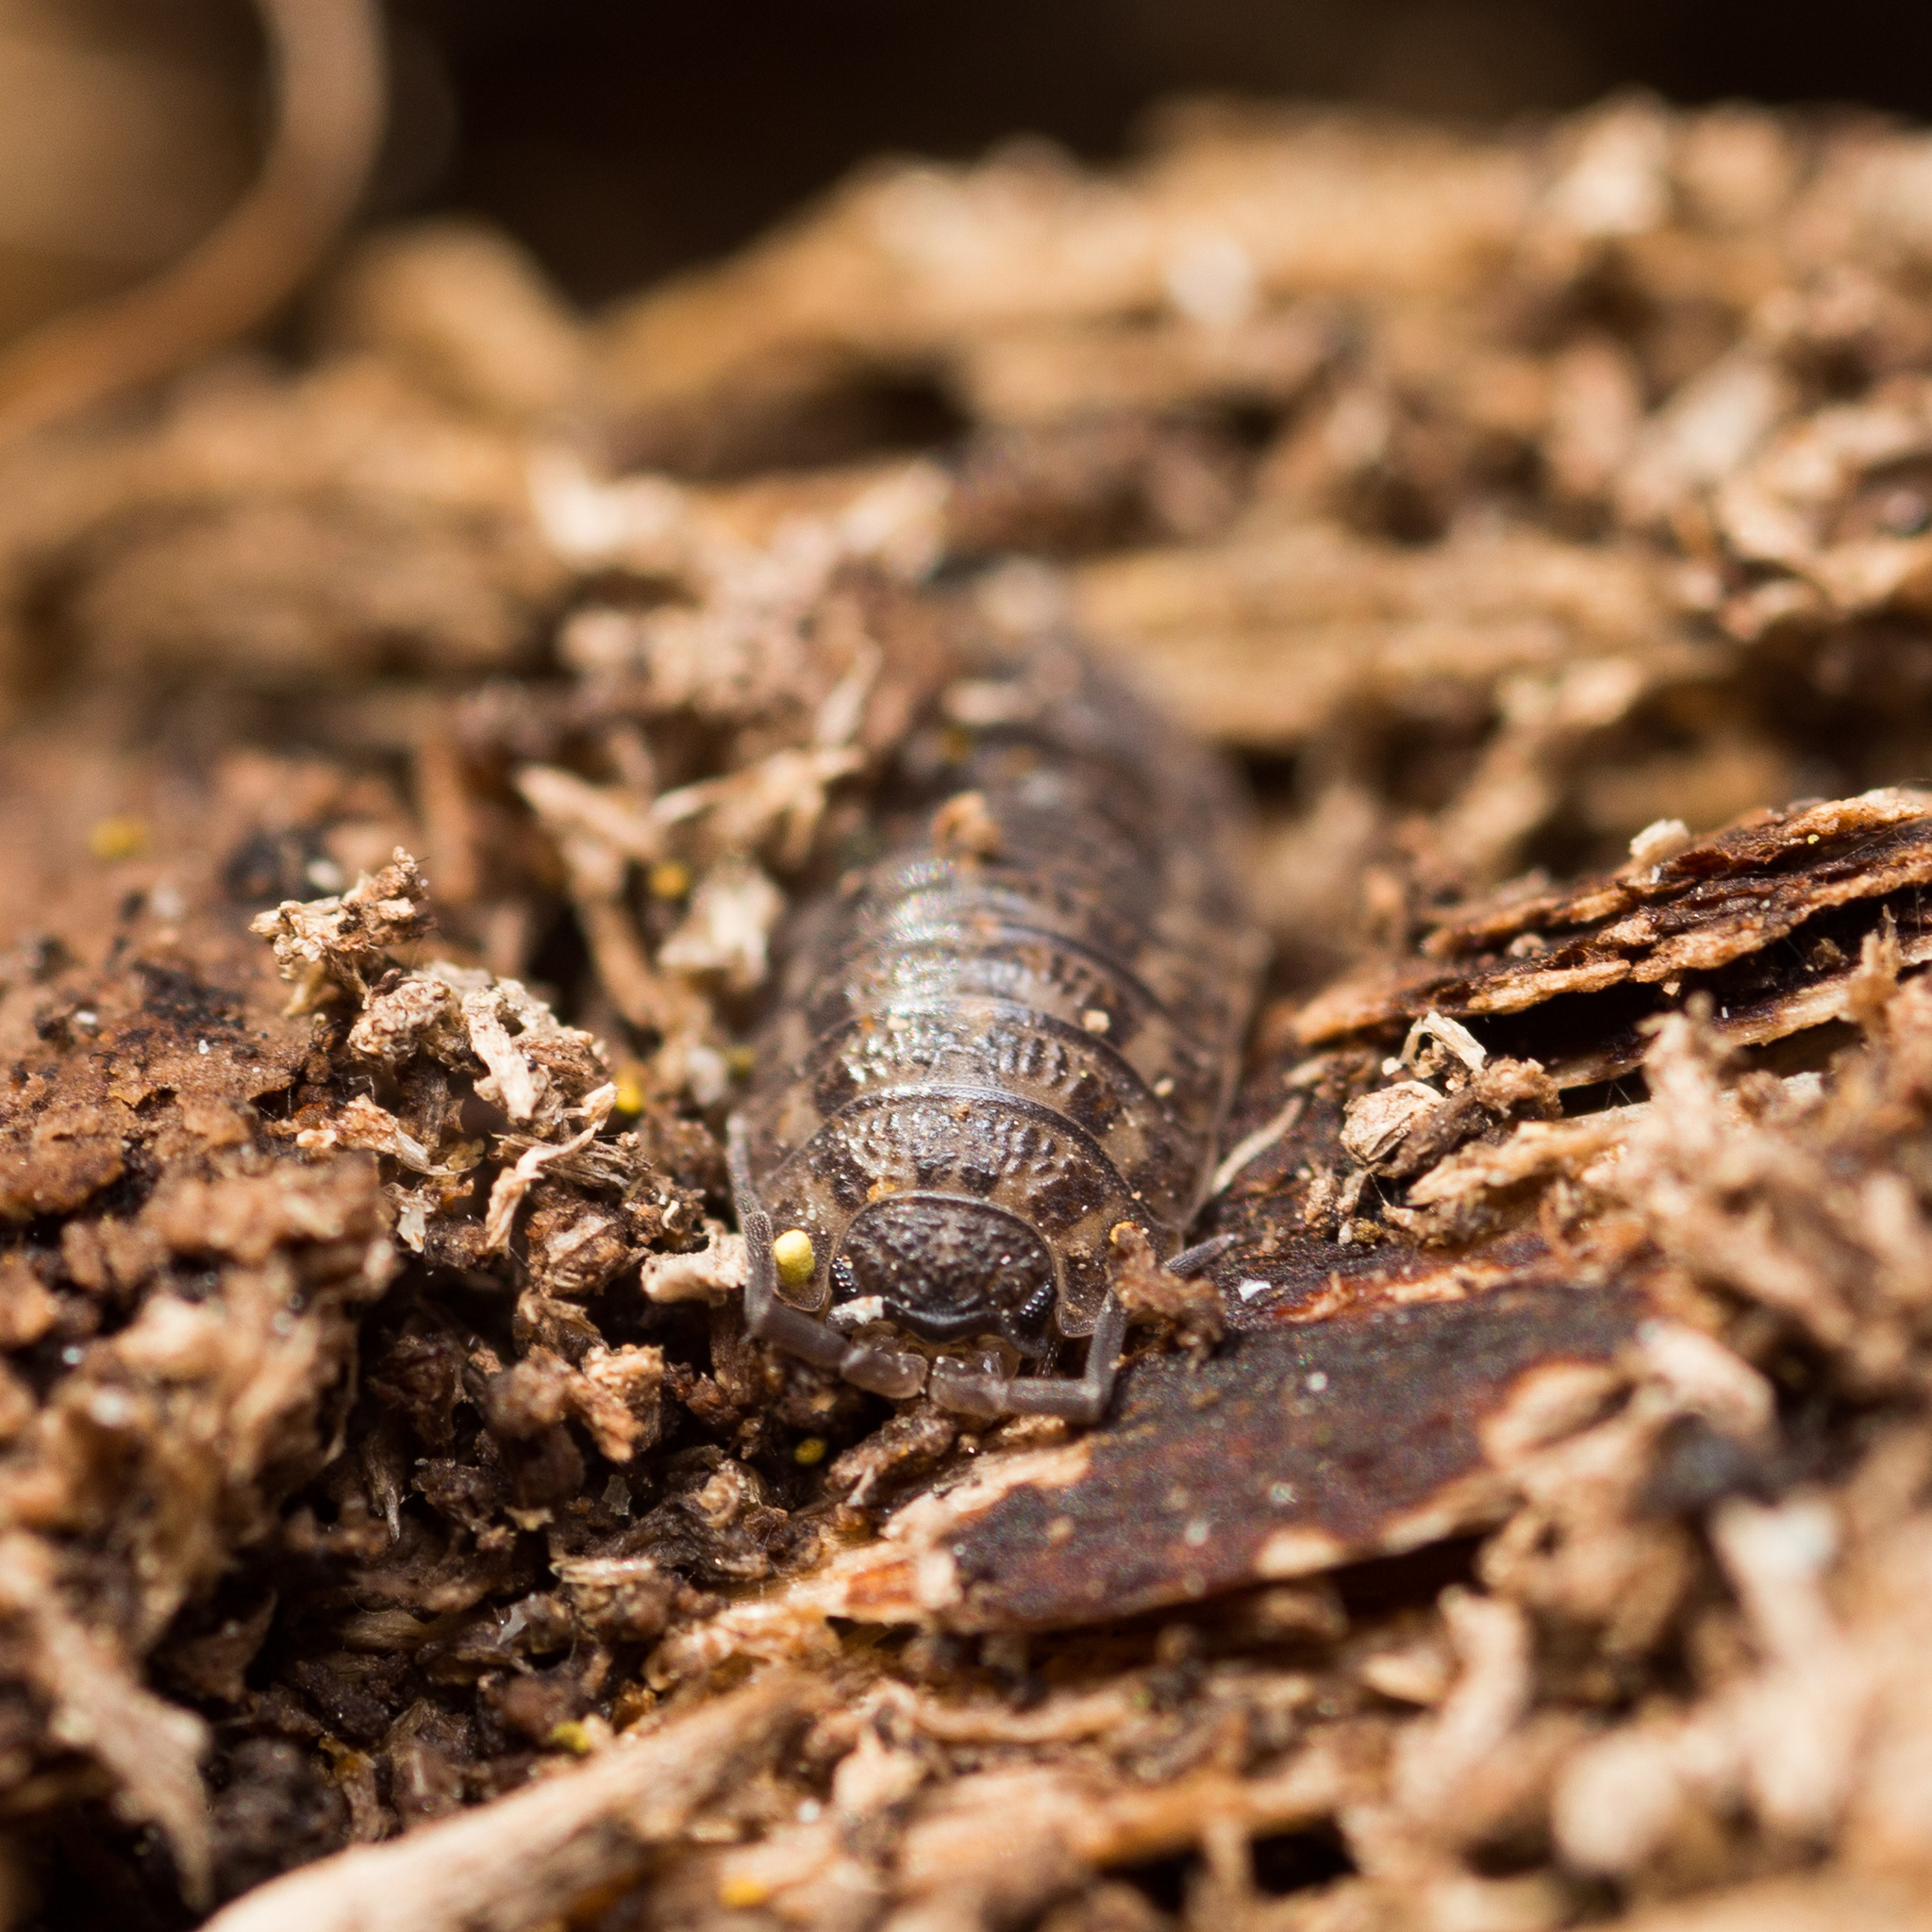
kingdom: Animalia
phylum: Arthropoda
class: Malacostraca
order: Isopoda
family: Trachelipodidae
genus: Trachelipus
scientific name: Trachelipus rathkii
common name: Isopod
